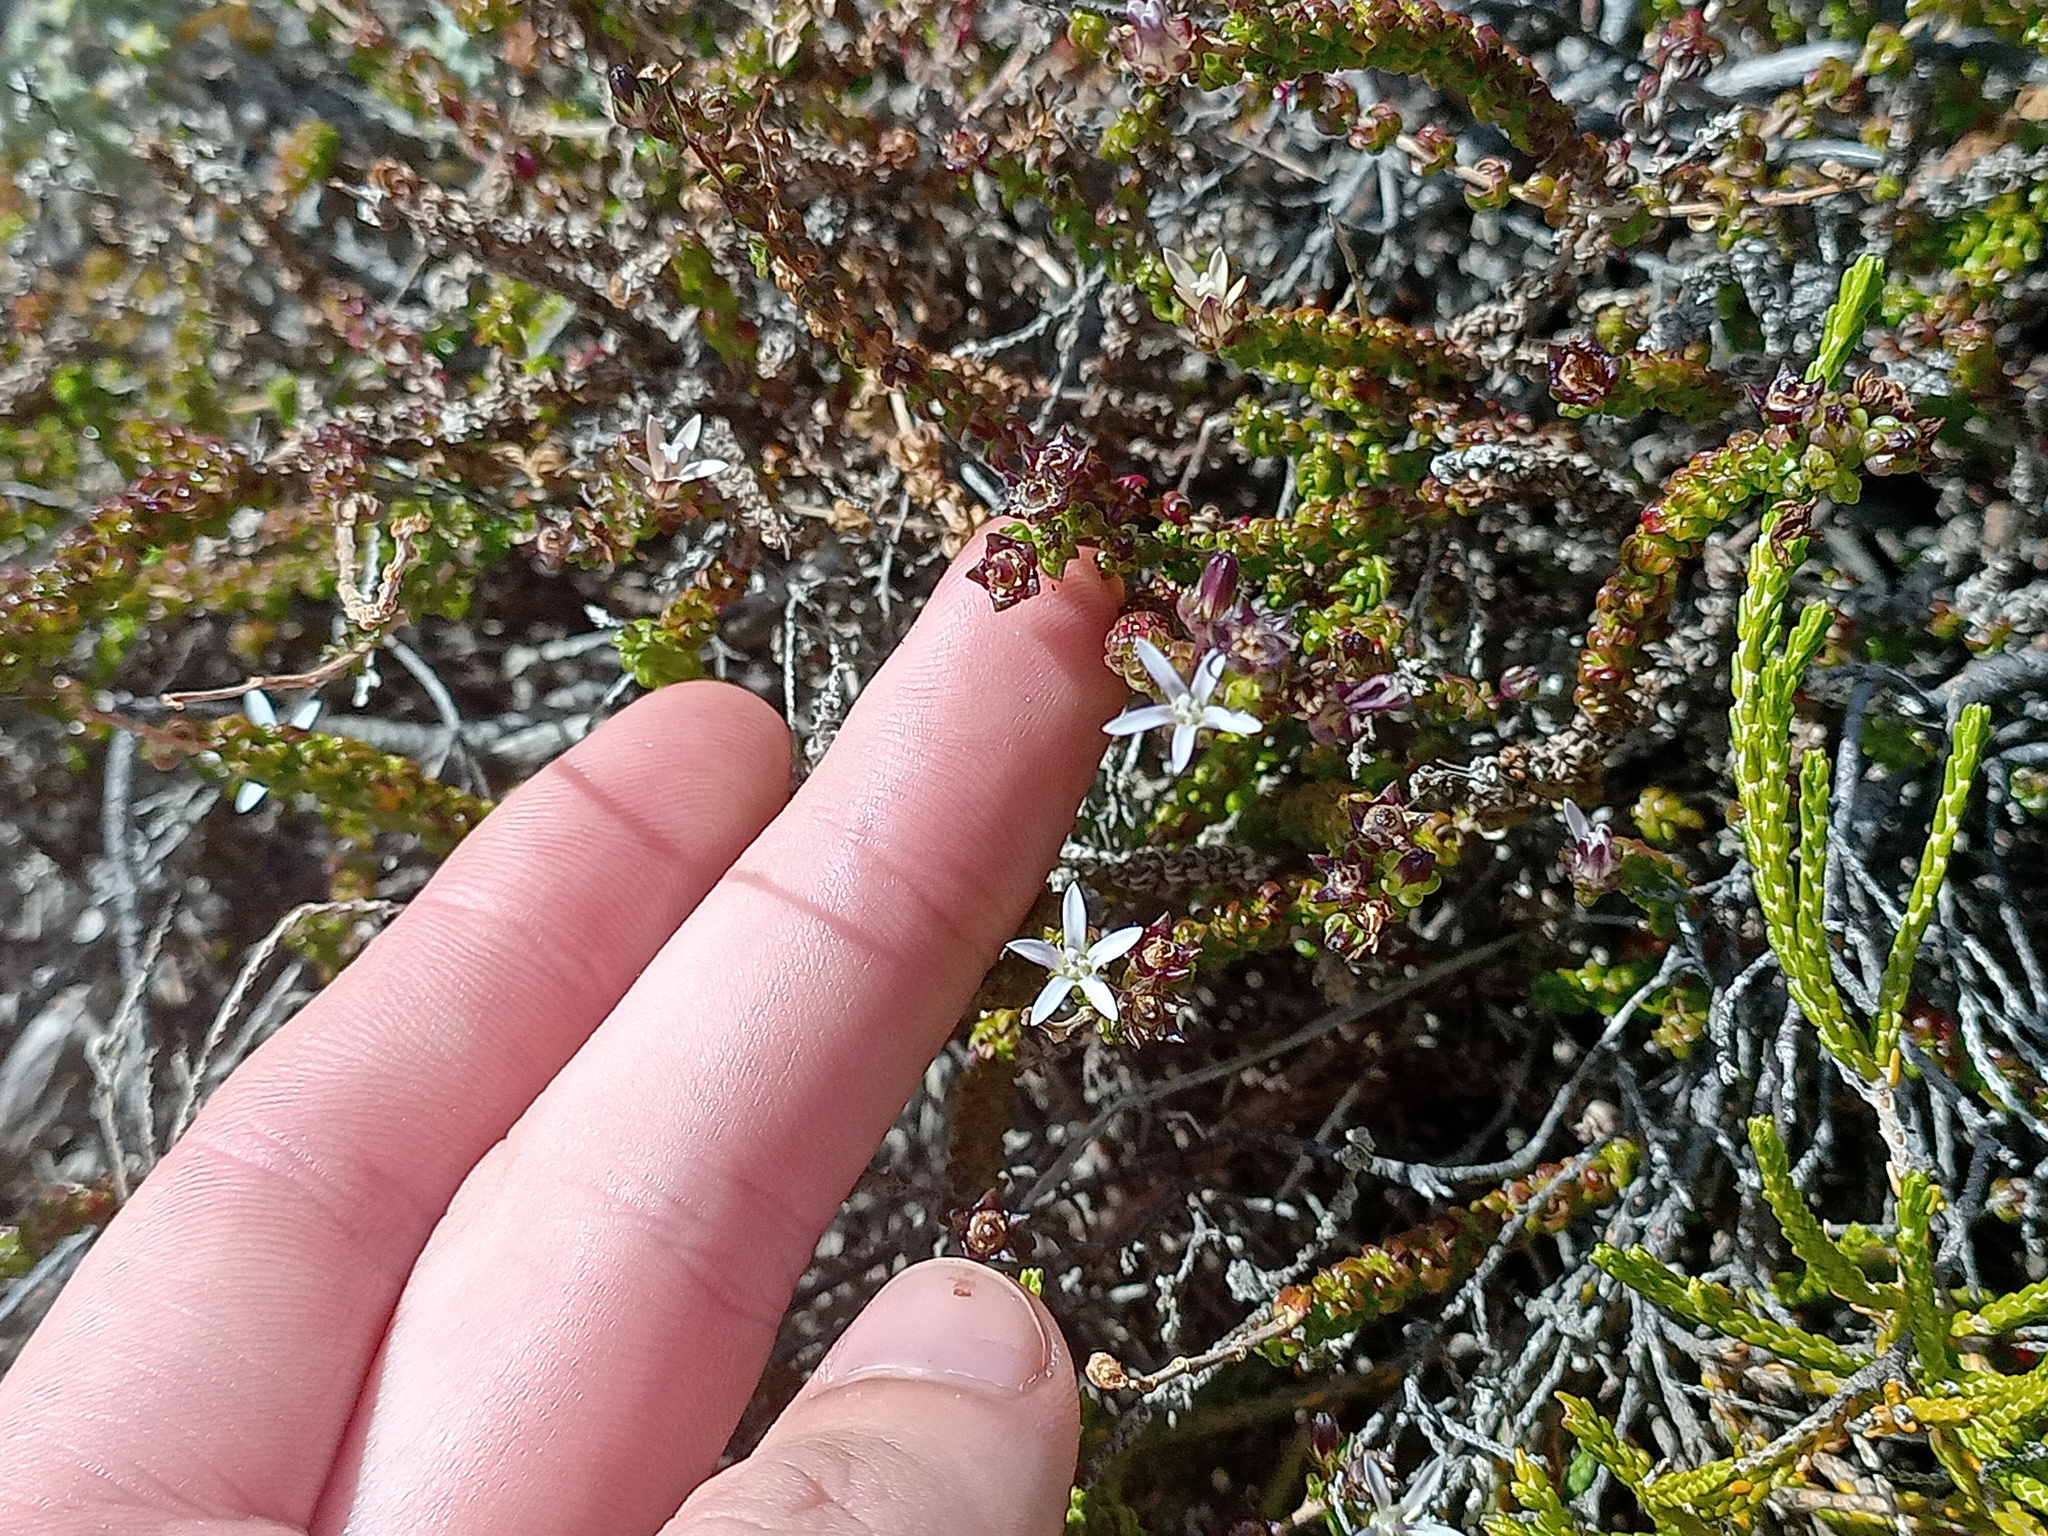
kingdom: Plantae
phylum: Tracheophyta
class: Magnoliopsida
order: Asterales
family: Campanulaceae
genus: Wahlenbergia
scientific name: Wahlenbergia tenella
